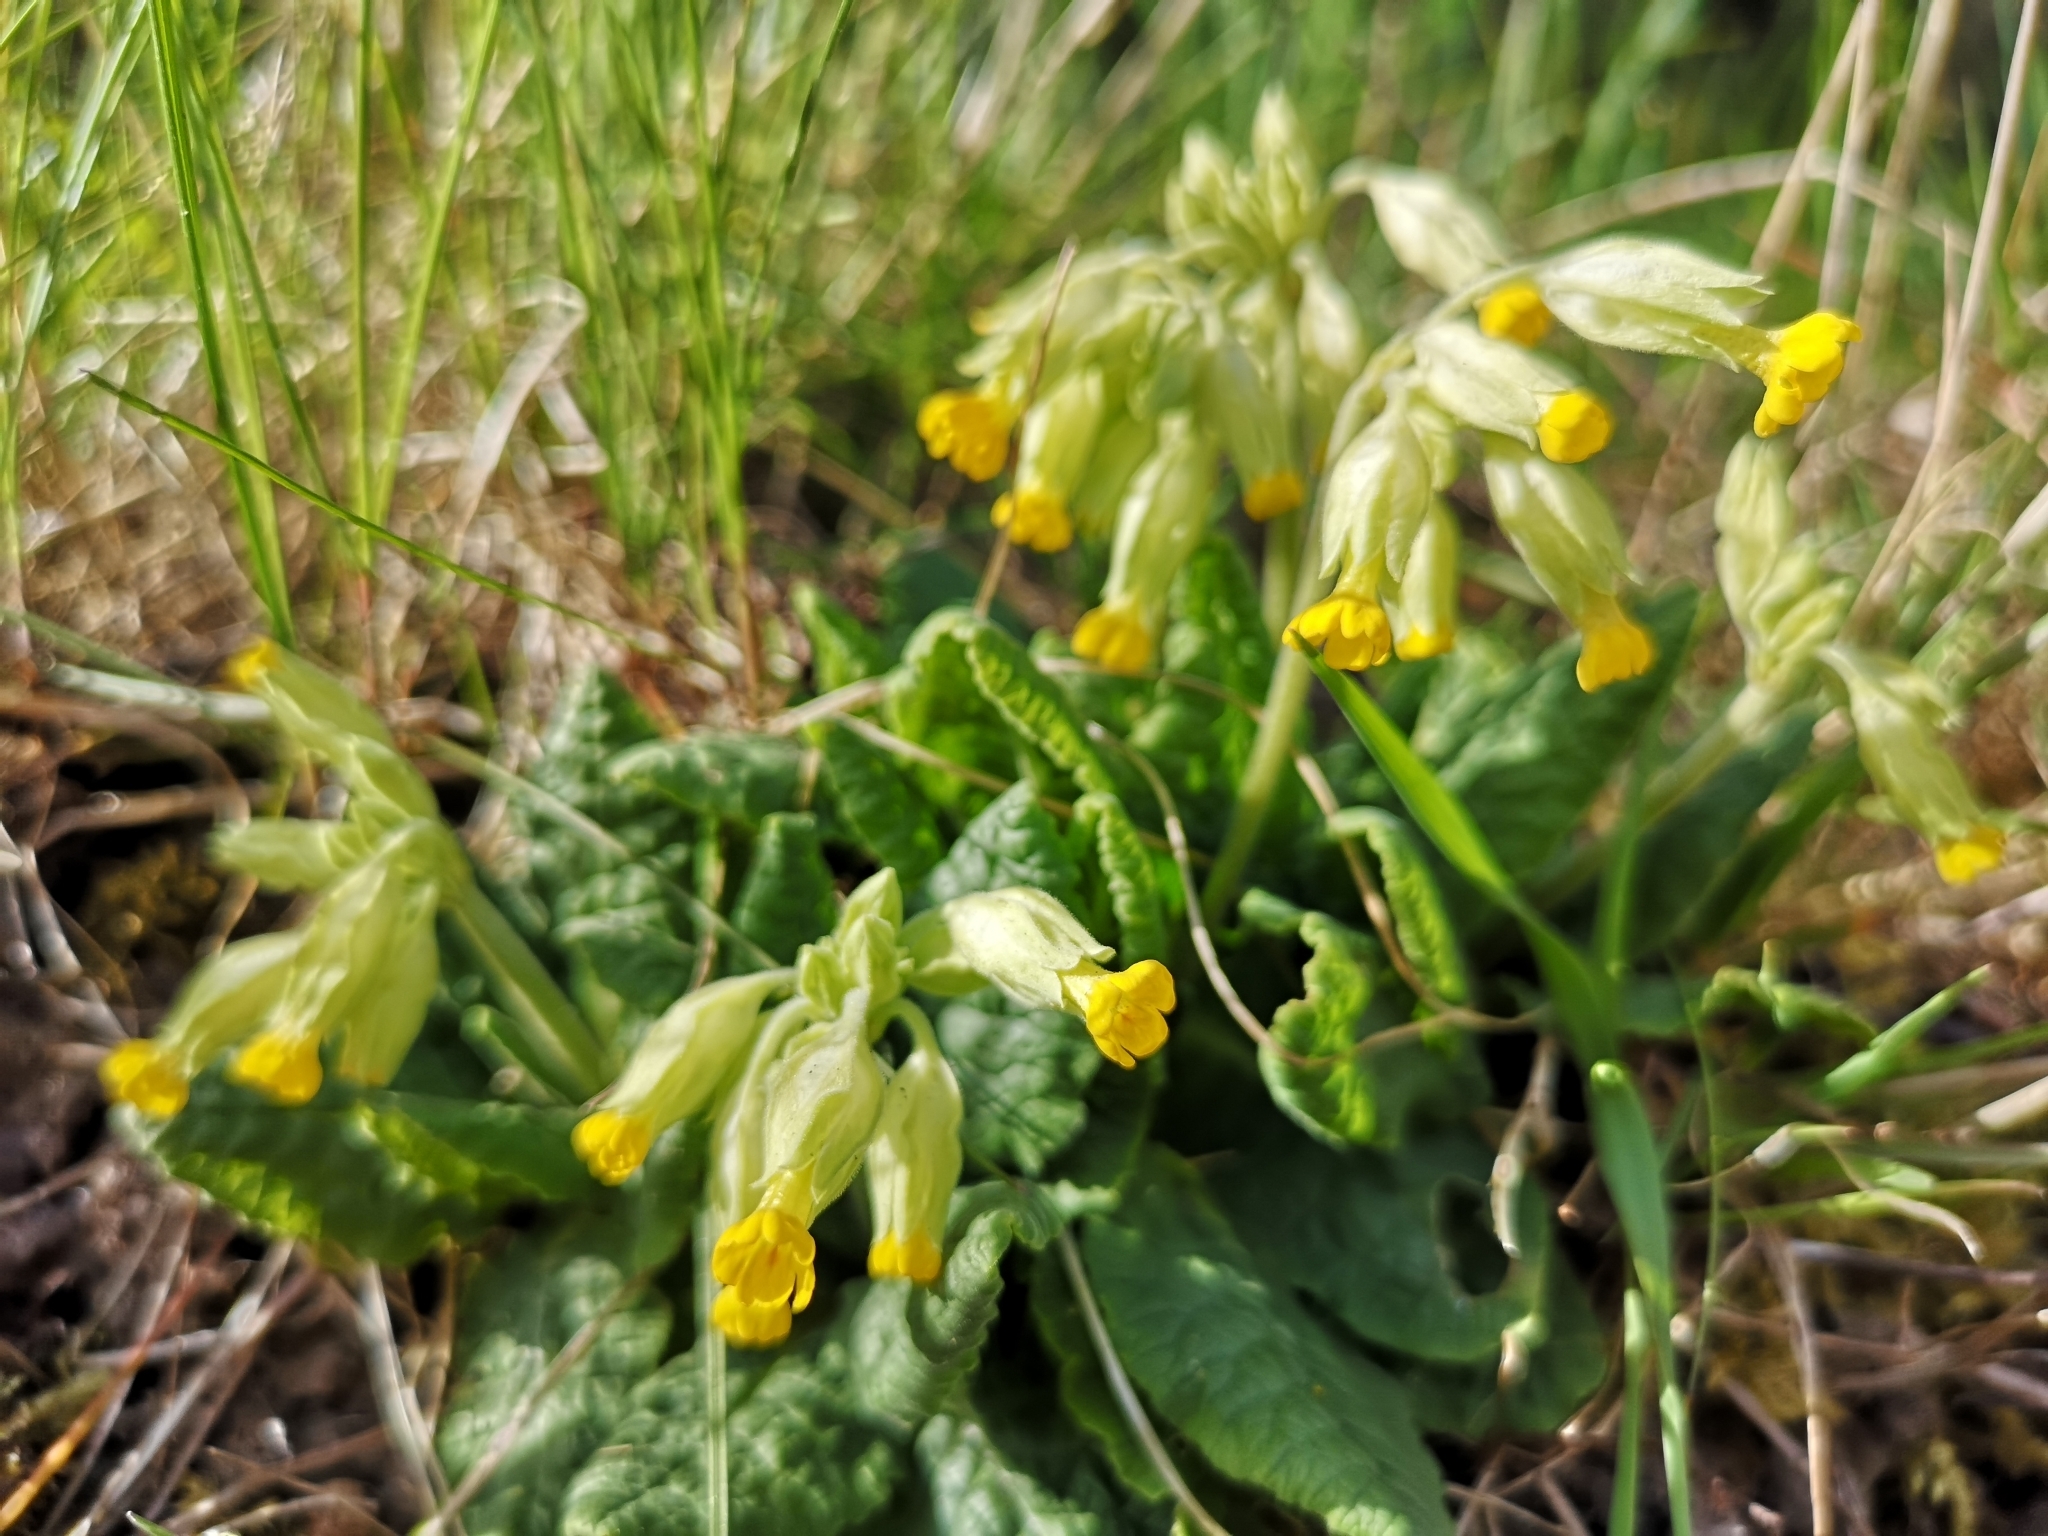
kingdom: Plantae
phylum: Tracheophyta
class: Magnoliopsida
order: Ericales
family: Primulaceae
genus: Primula
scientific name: Primula veris
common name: Cowslip
